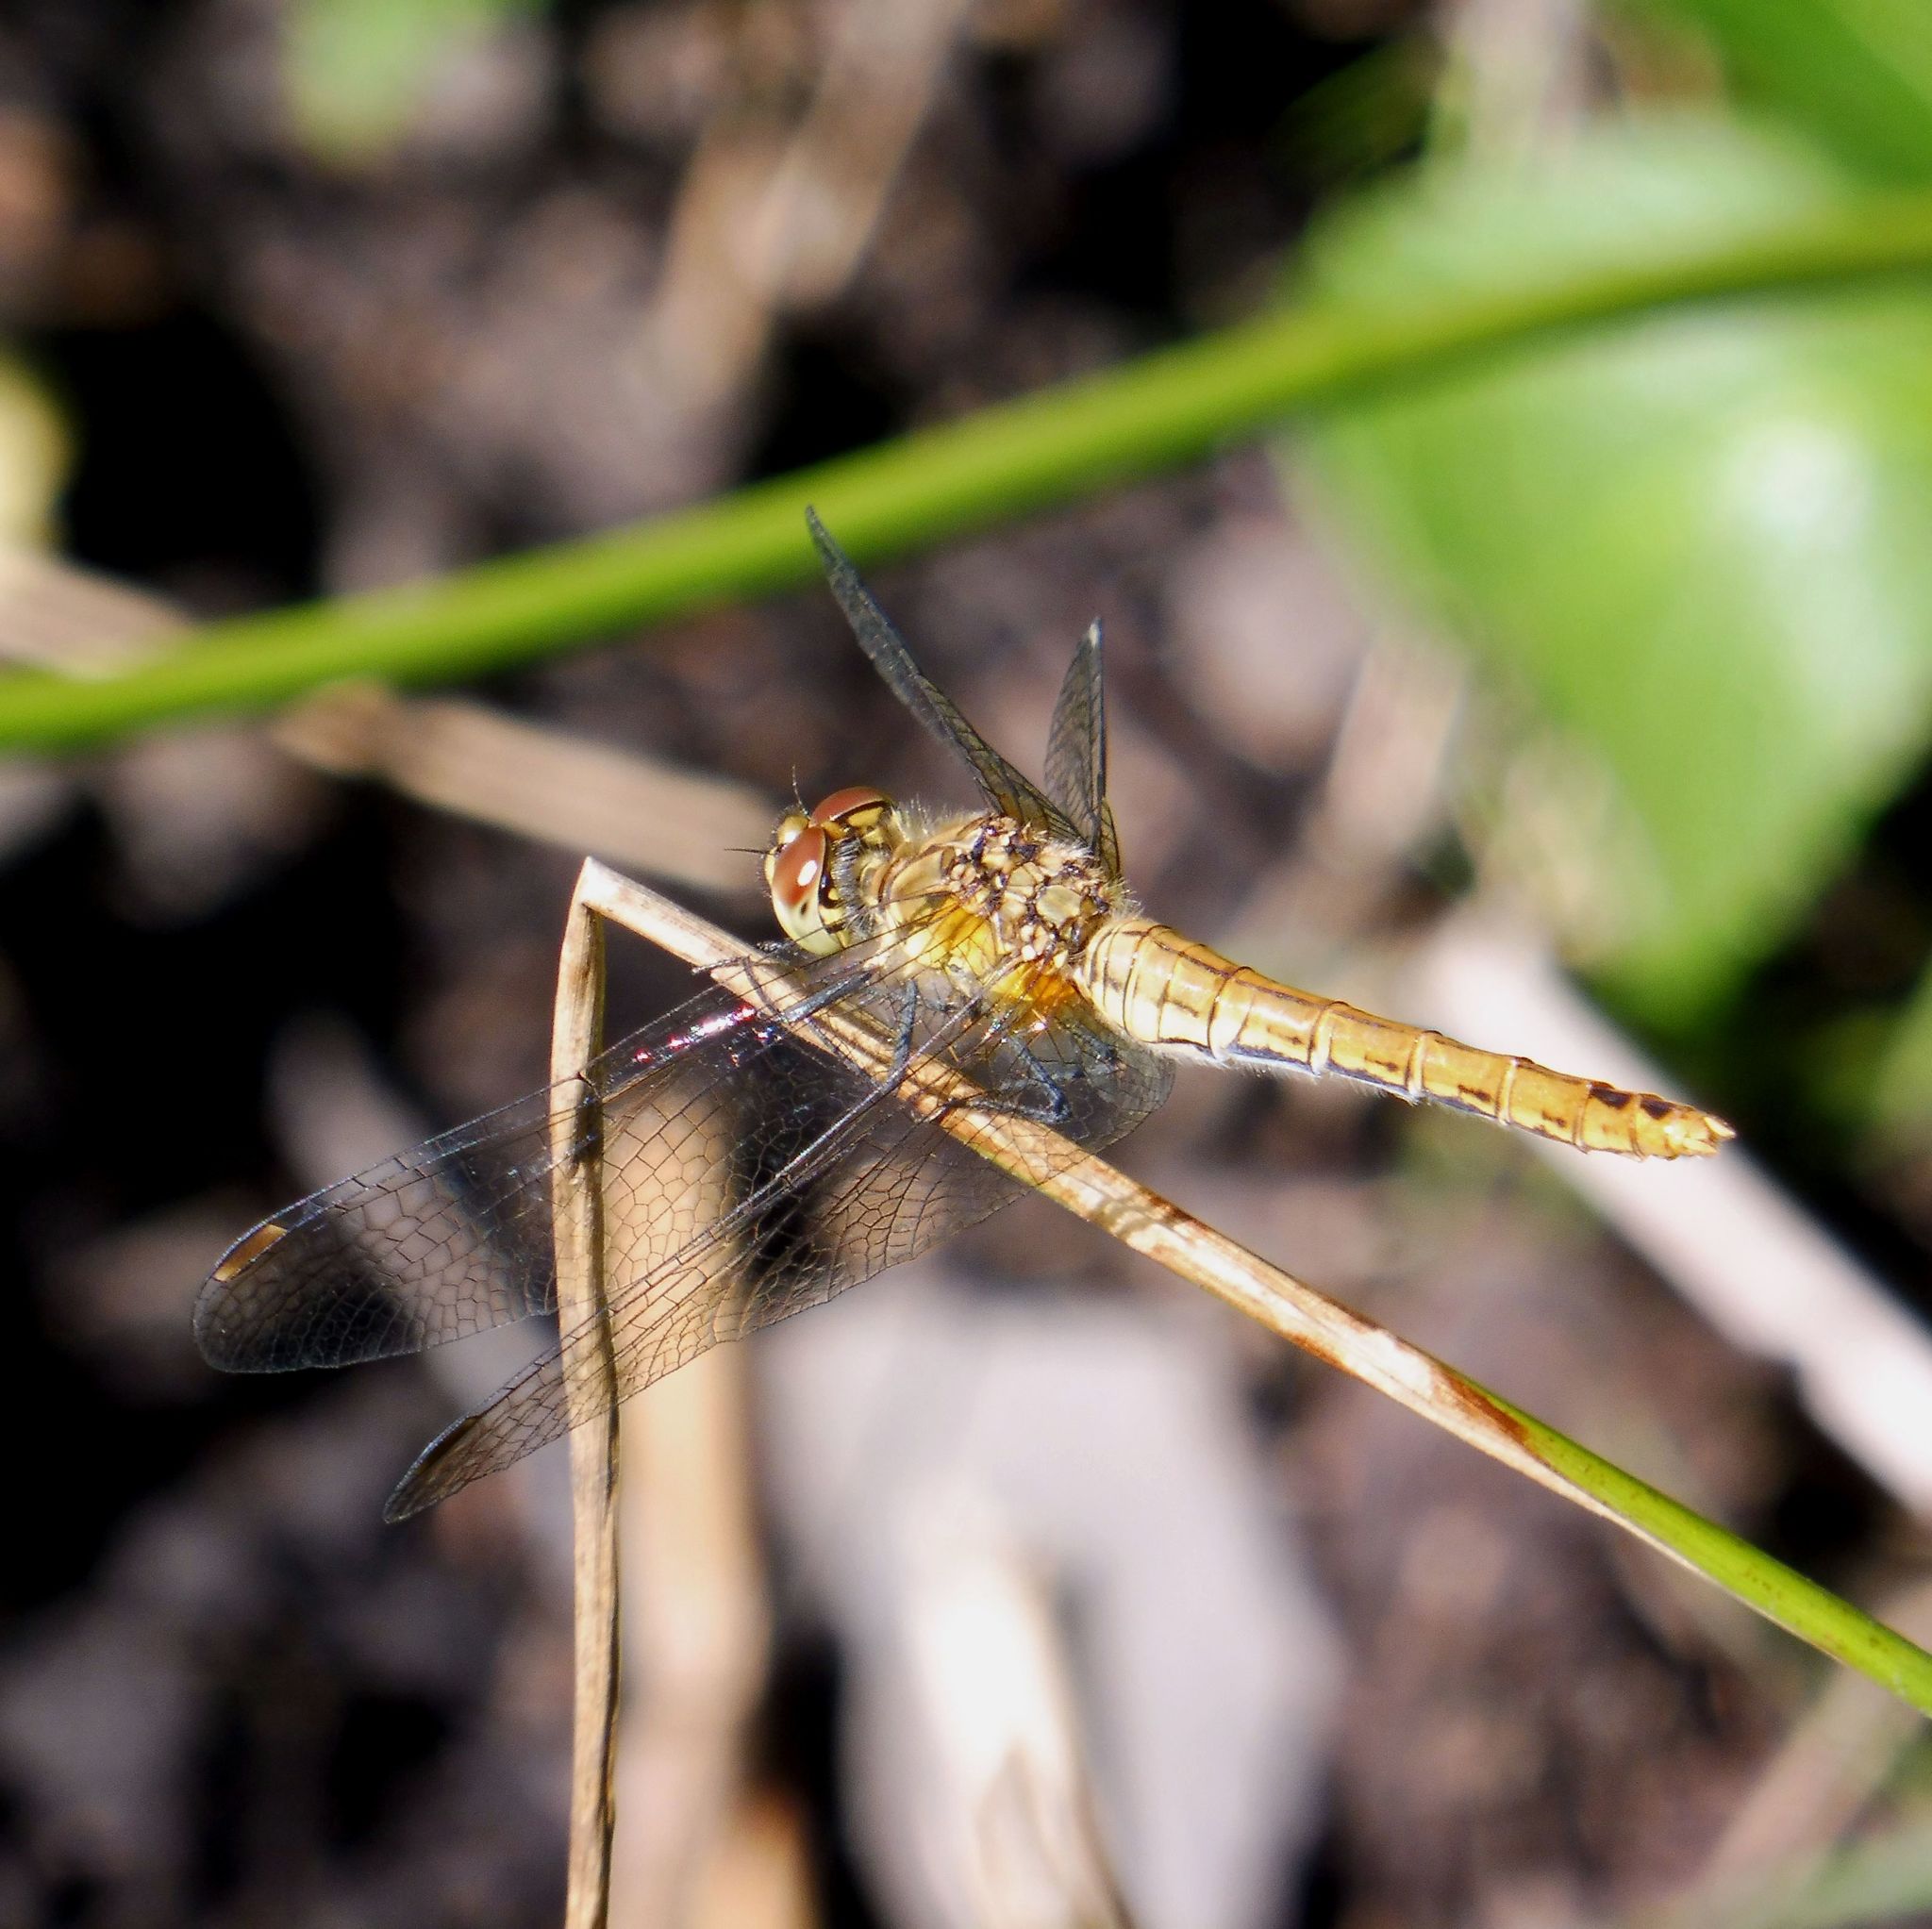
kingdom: Animalia
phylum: Arthropoda
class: Insecta
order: Odonata
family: Libellulidae
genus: Sympetrum
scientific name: Sympetrum sanguineum
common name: Ruddy darter
